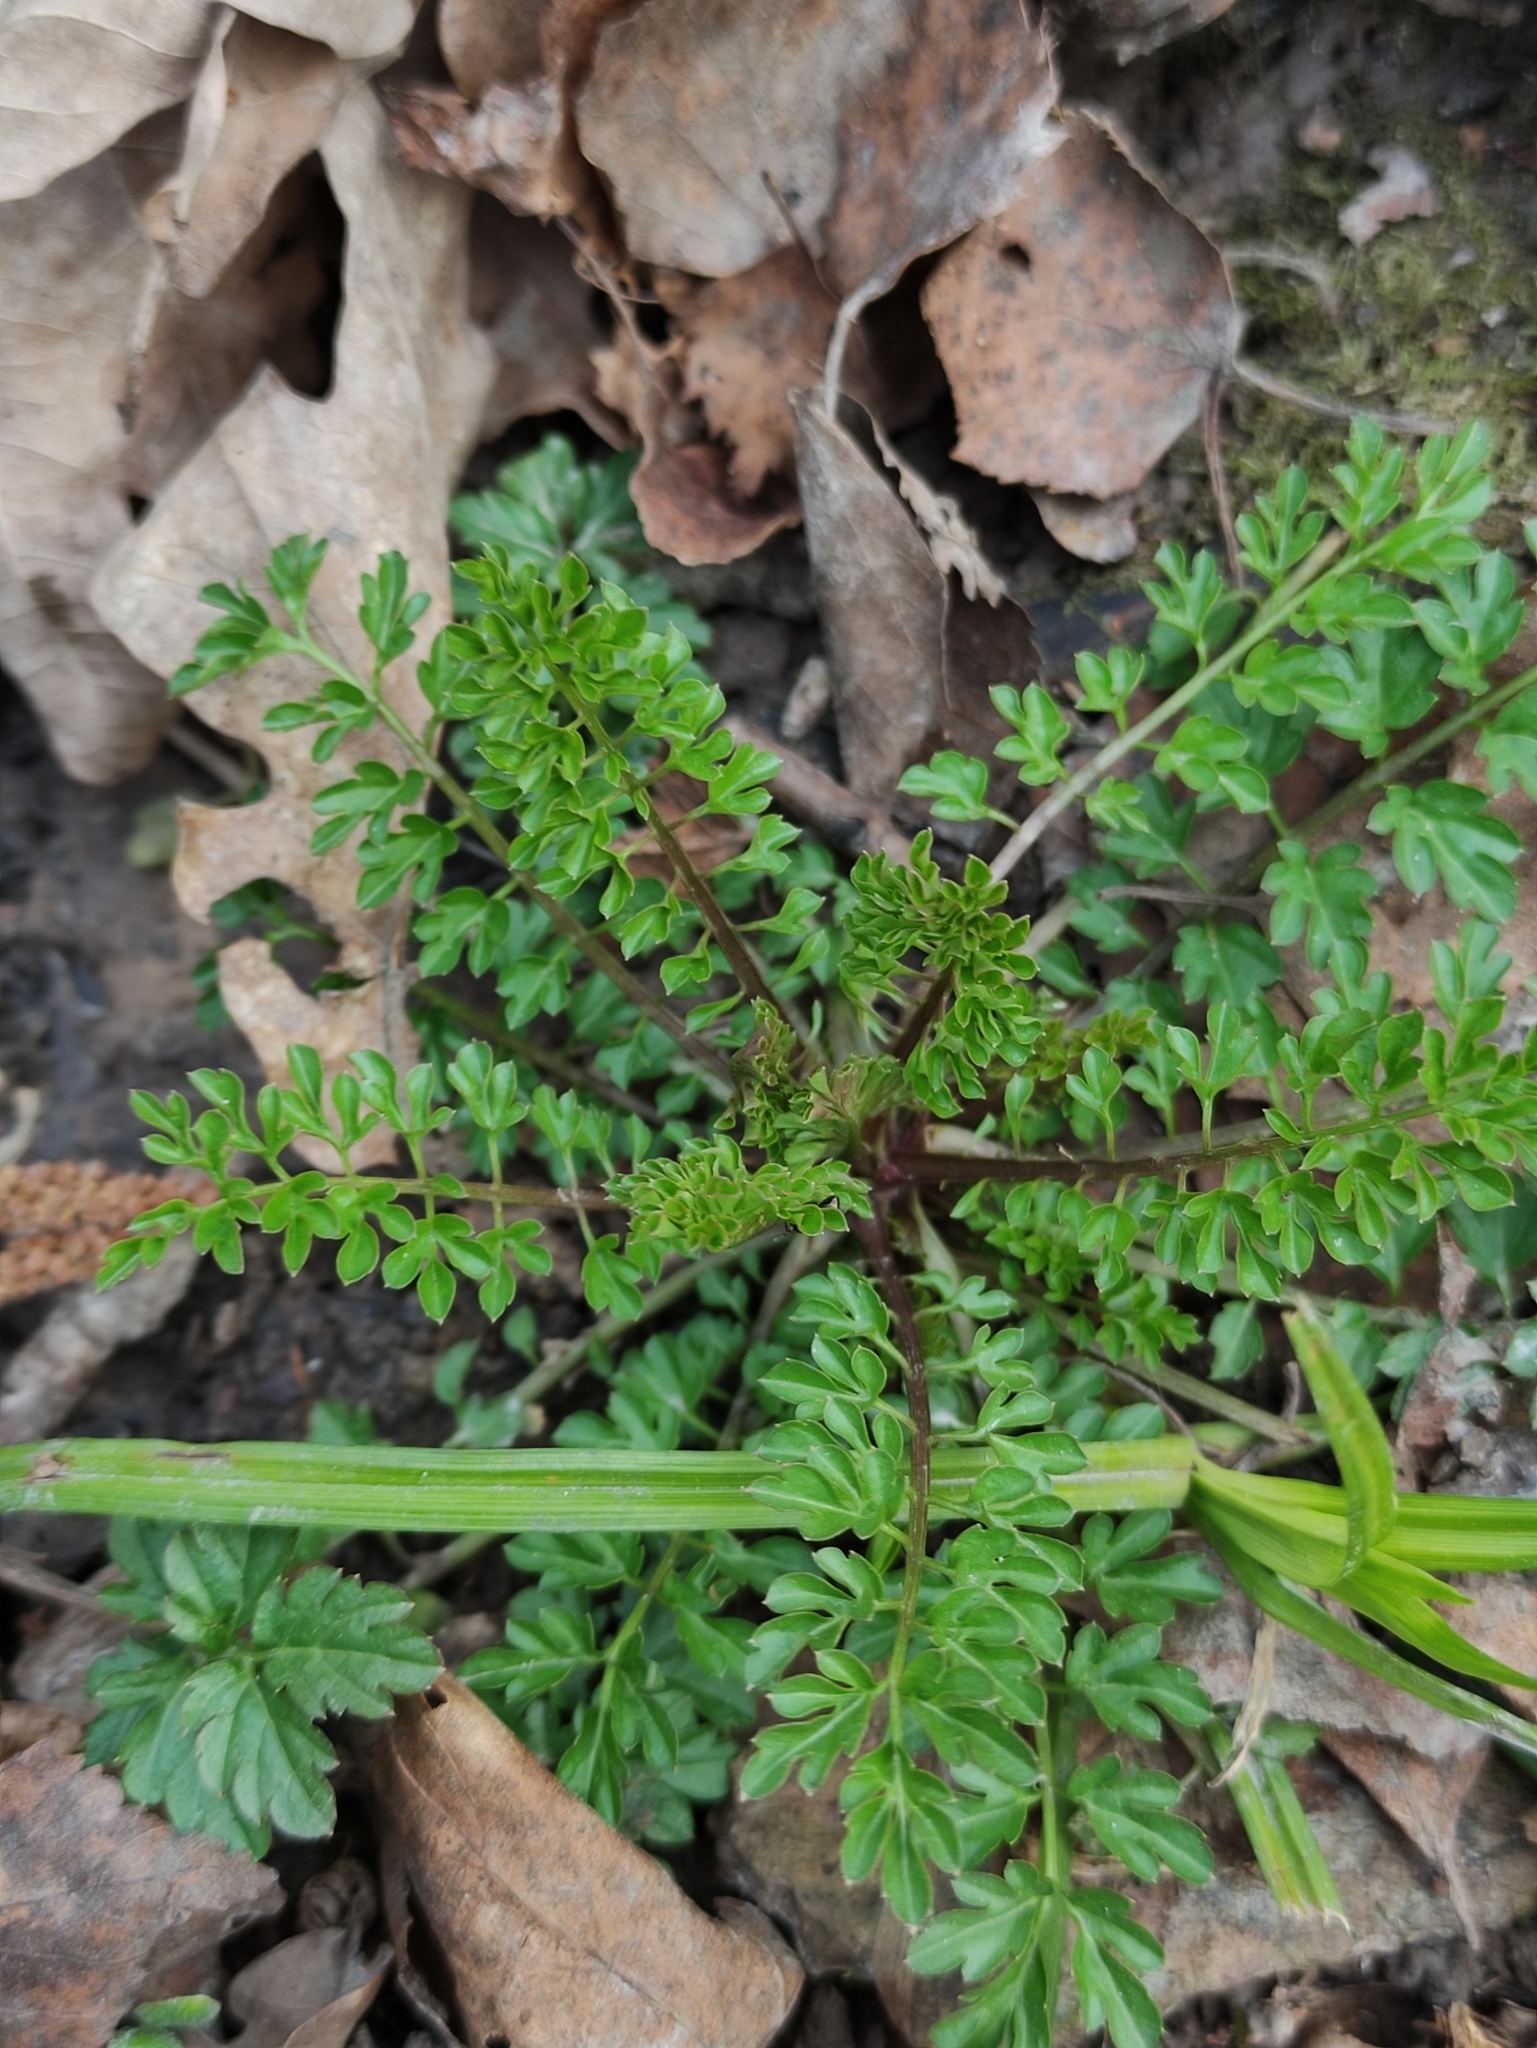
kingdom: Plantae
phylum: Tracheophyta
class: Magnoliopsida
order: Brassicales
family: Brassicaceae
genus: Cardamine
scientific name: Cardamine impatiens
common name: Narrow-leaved bitter-cress
